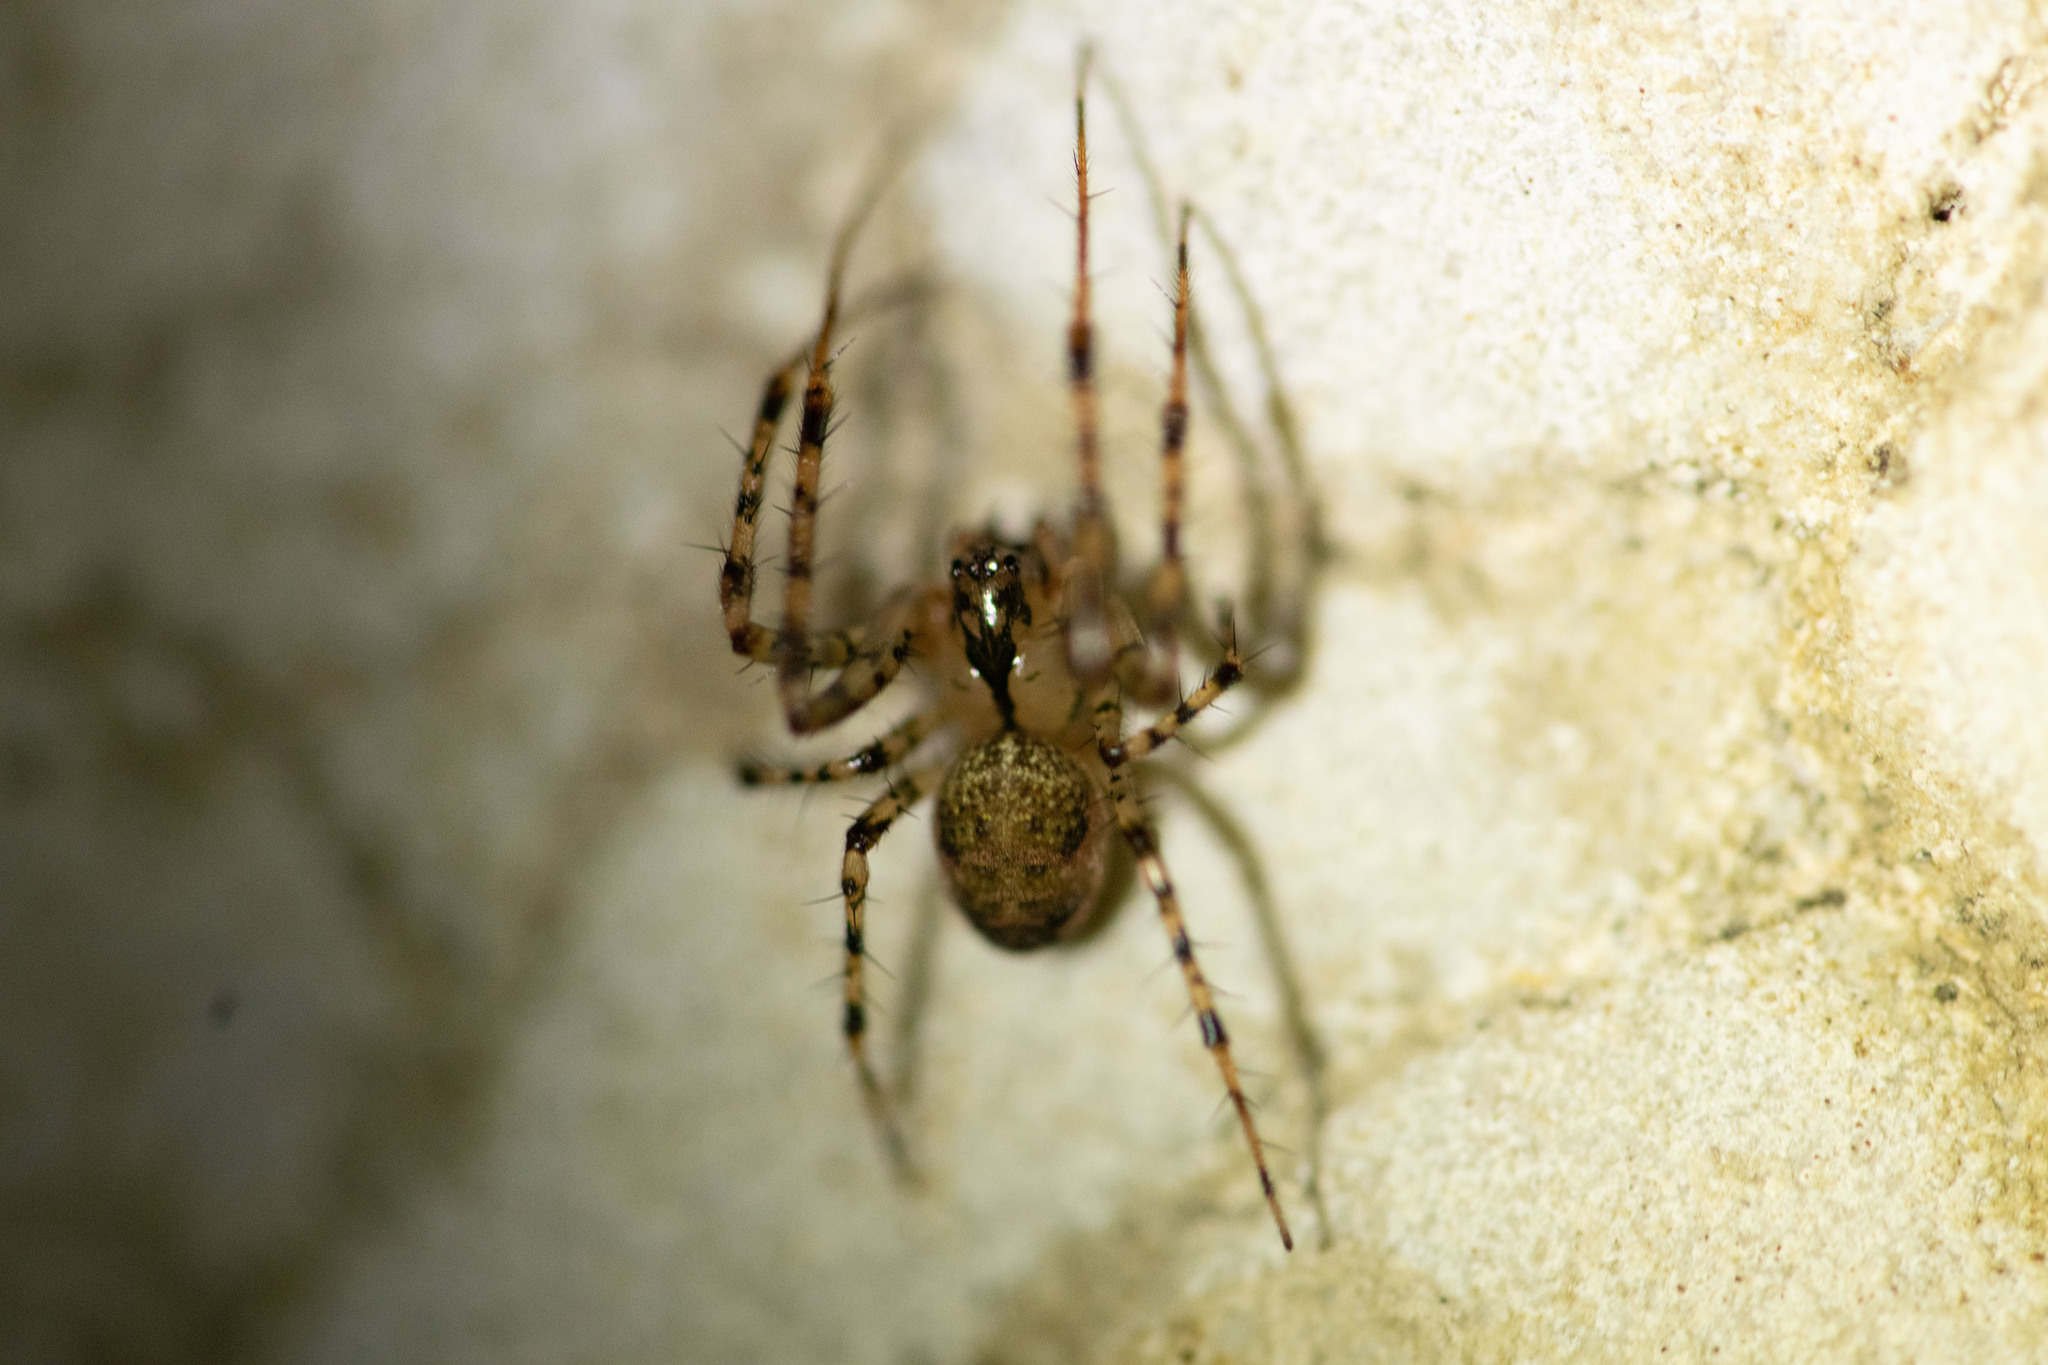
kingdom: Animalia
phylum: Arthropoda
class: Arachnida
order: Araneae
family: Tetragnathidae
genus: Metellina
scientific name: Metellina merianae
